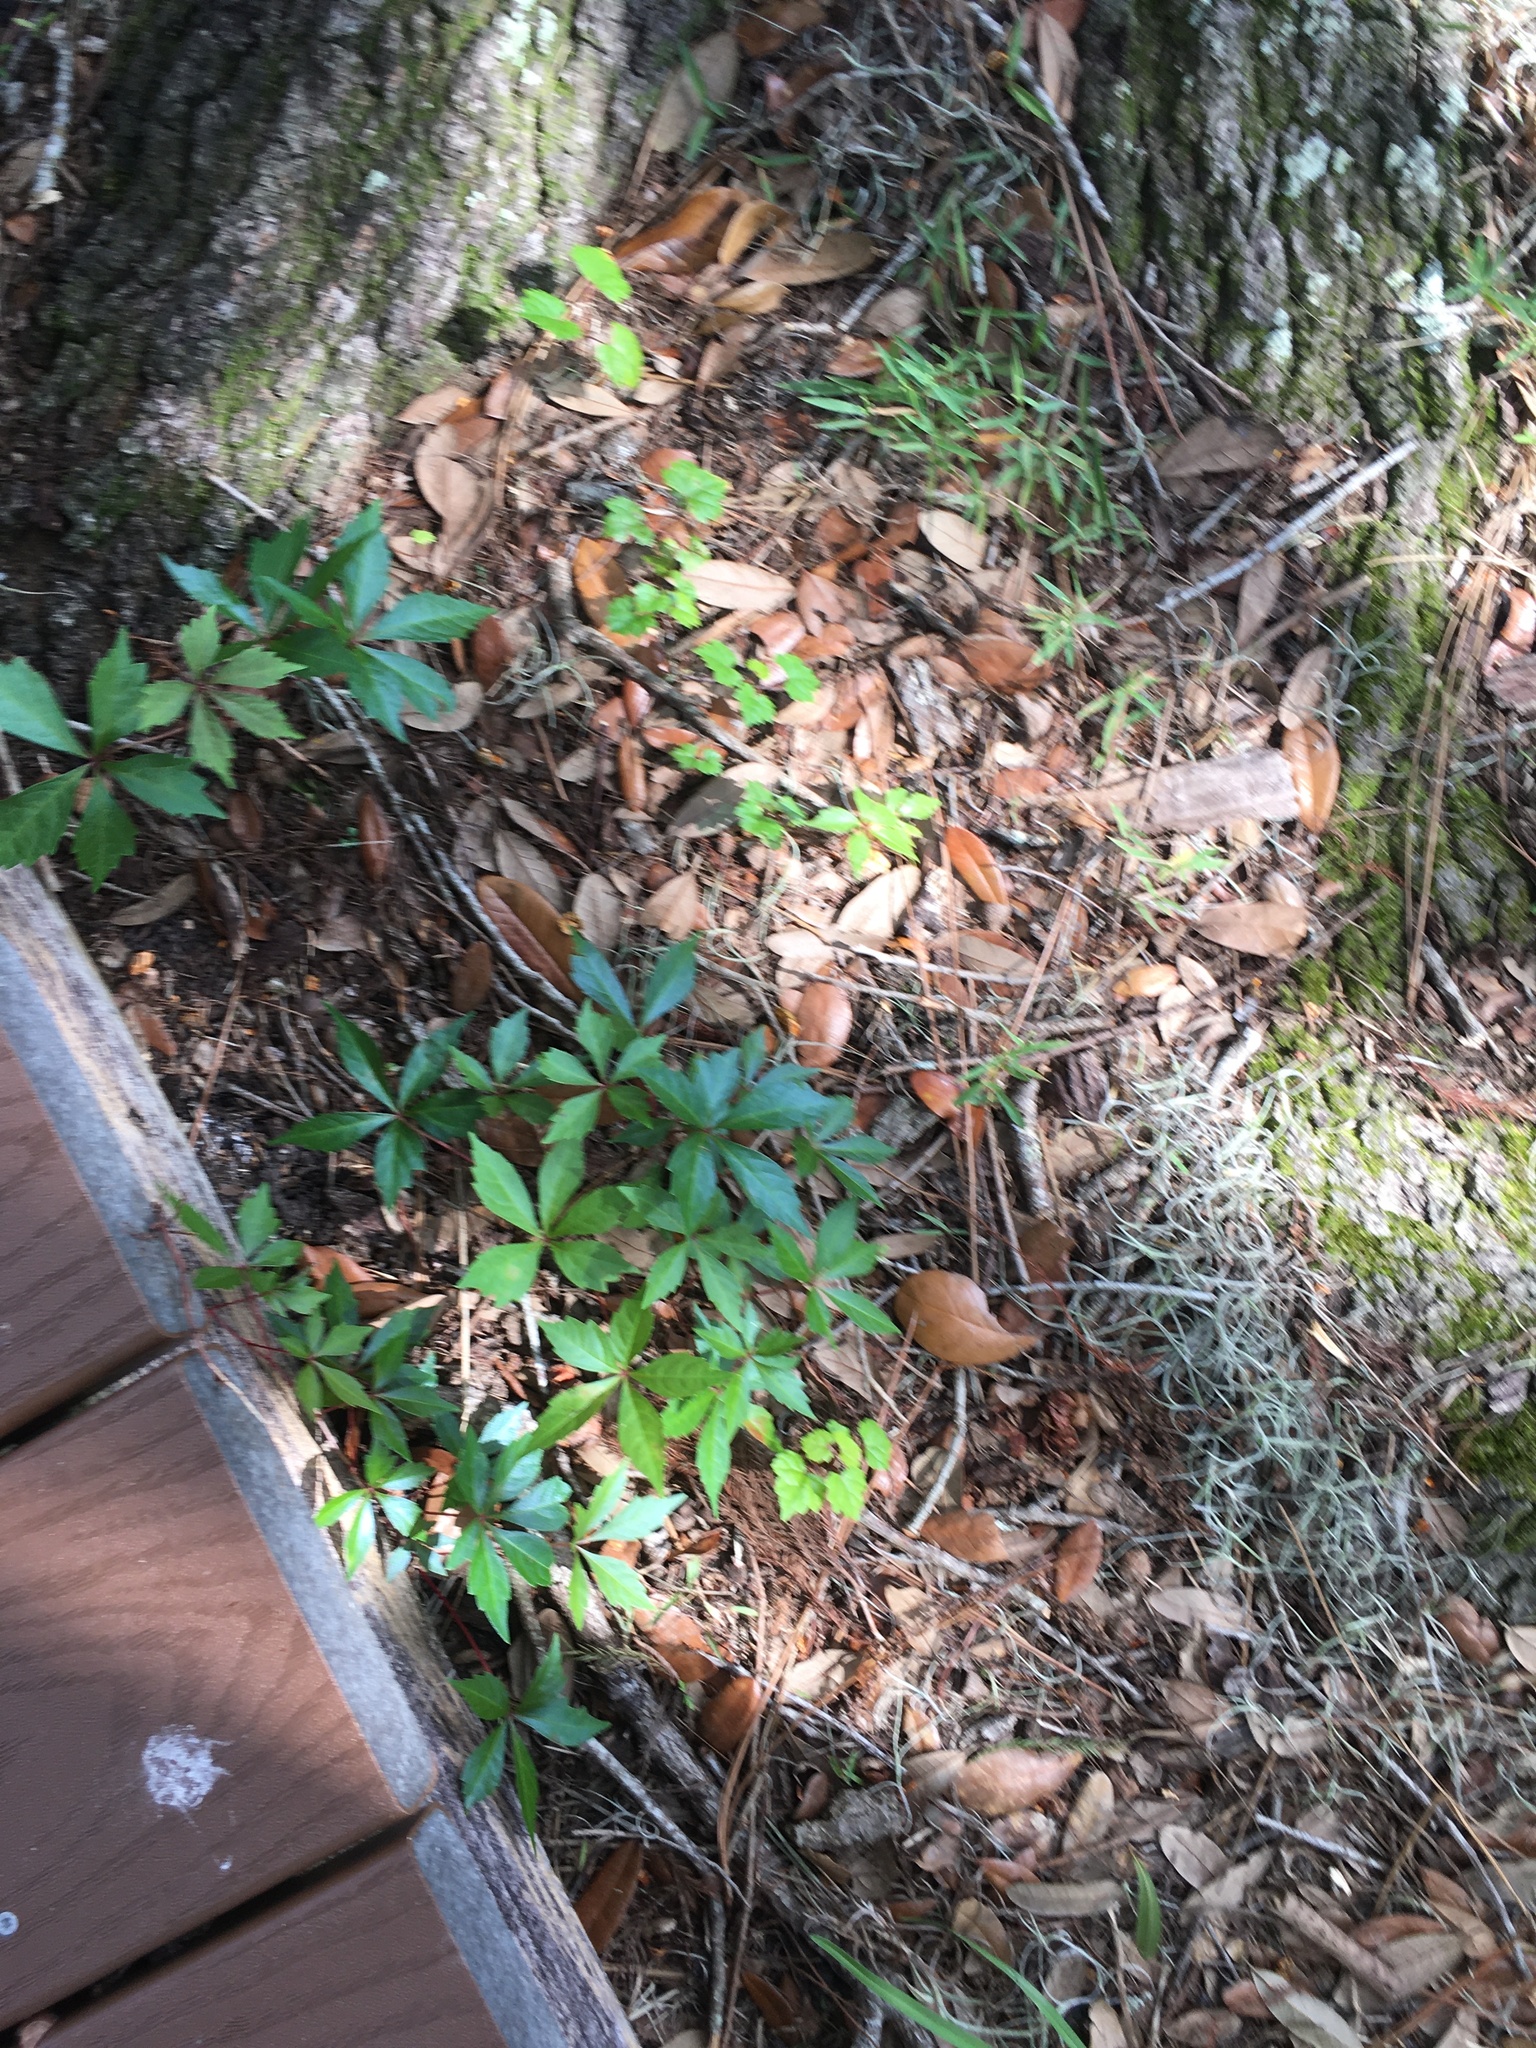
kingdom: Plantae
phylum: Tracheophyta
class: Magnoliopsida
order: Vitales
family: Vitaceae
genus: Parthenocissus
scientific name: Parthenocissus quinquefolia
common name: Virginia-creeper
